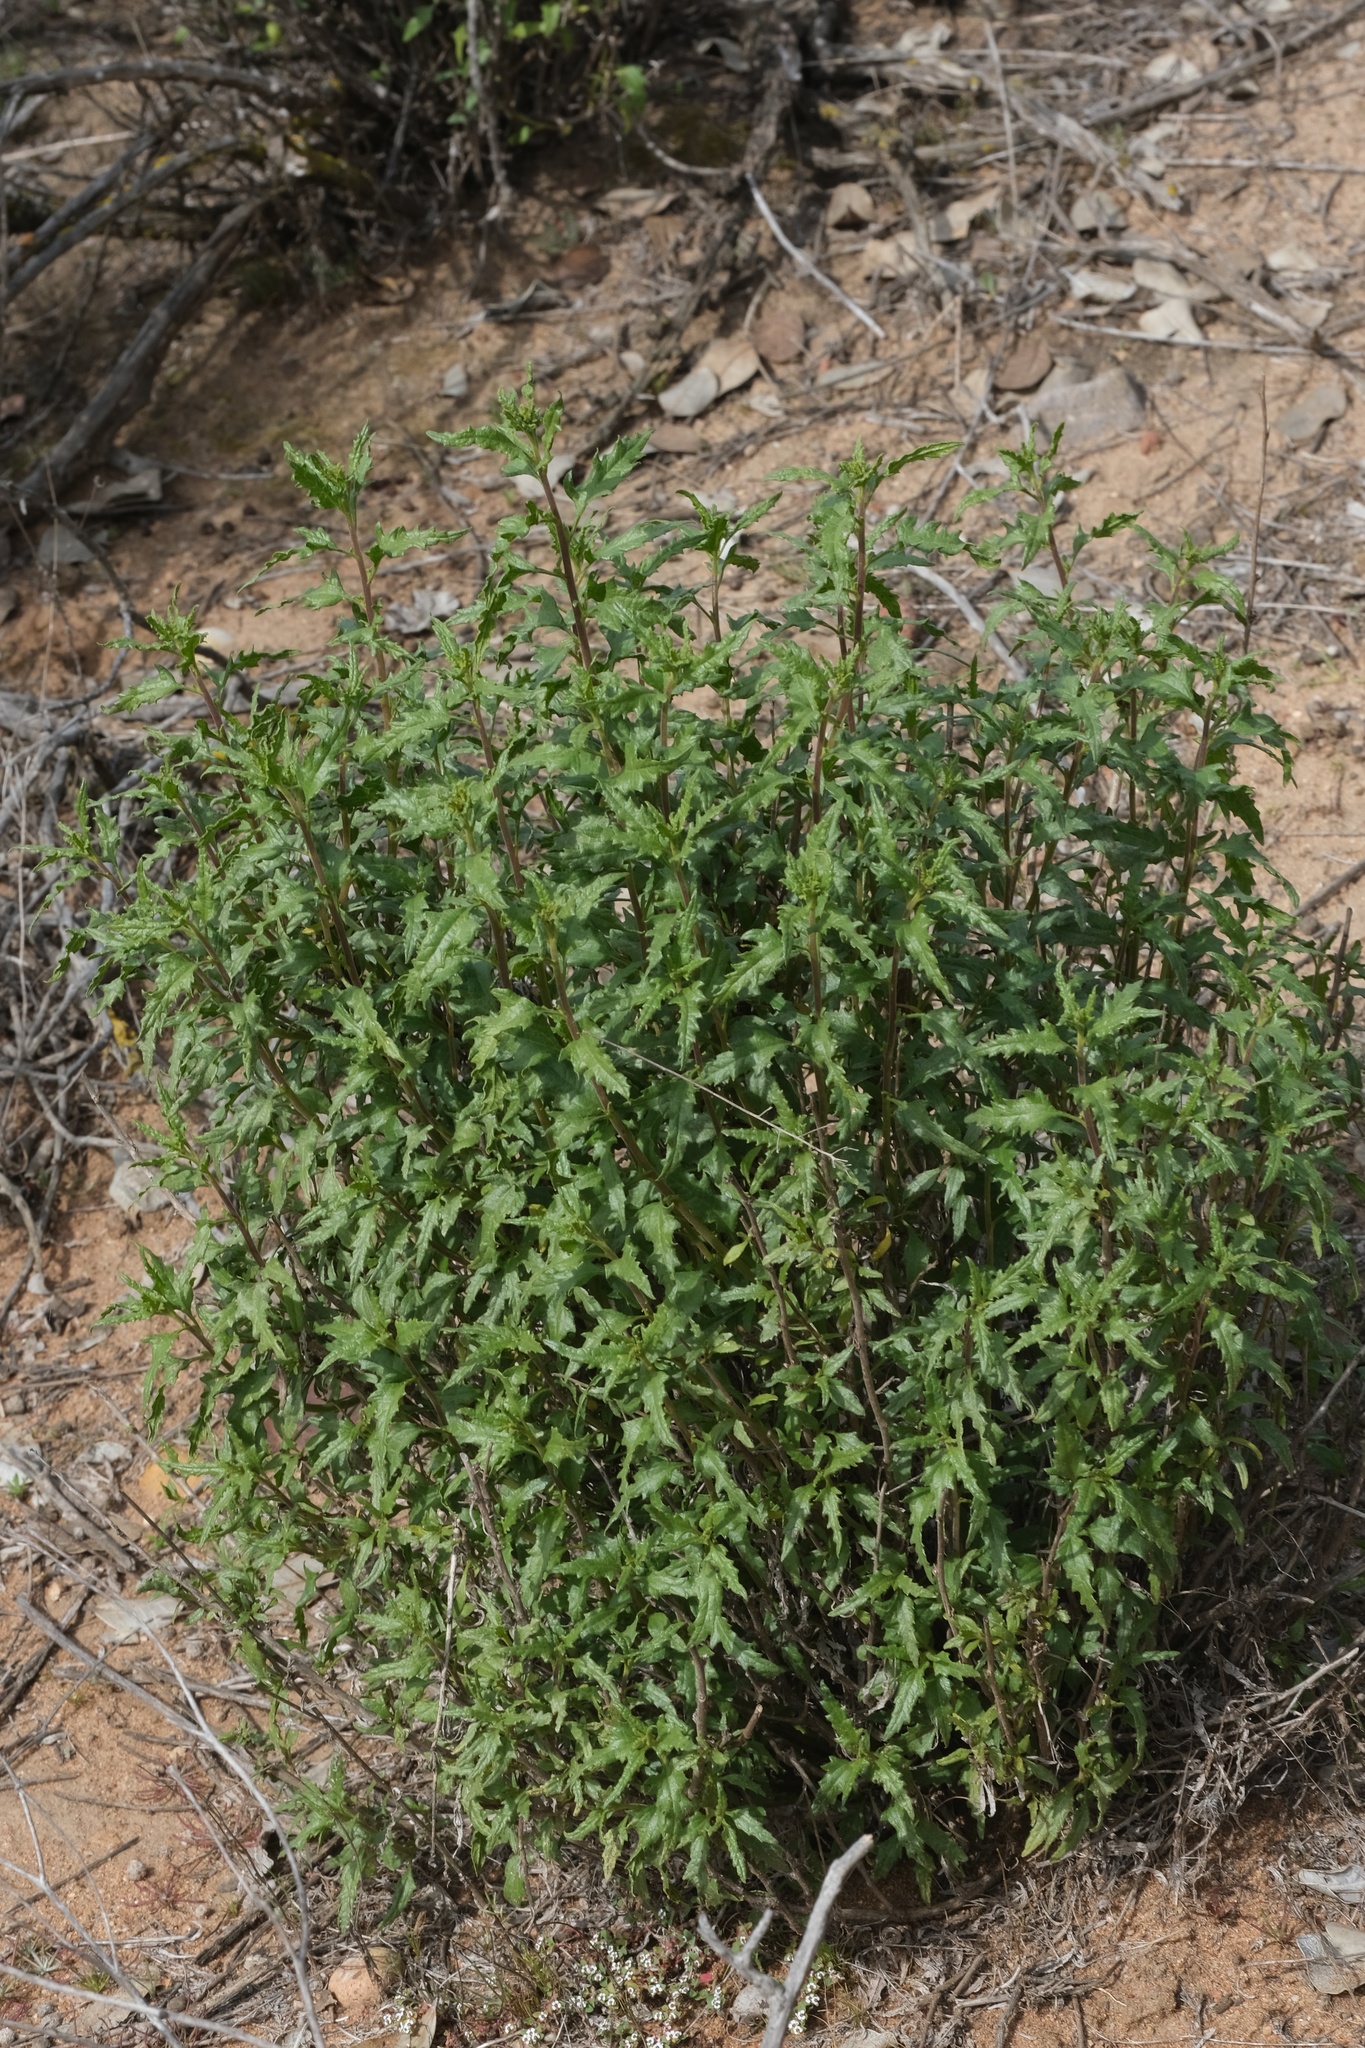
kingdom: Plantae
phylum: Tracheophyta
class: Magnoliopsida
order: Asterales
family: Asteraceae
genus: Bahiopsis
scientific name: Bahiopsis laciniata
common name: San diego county viguiera
